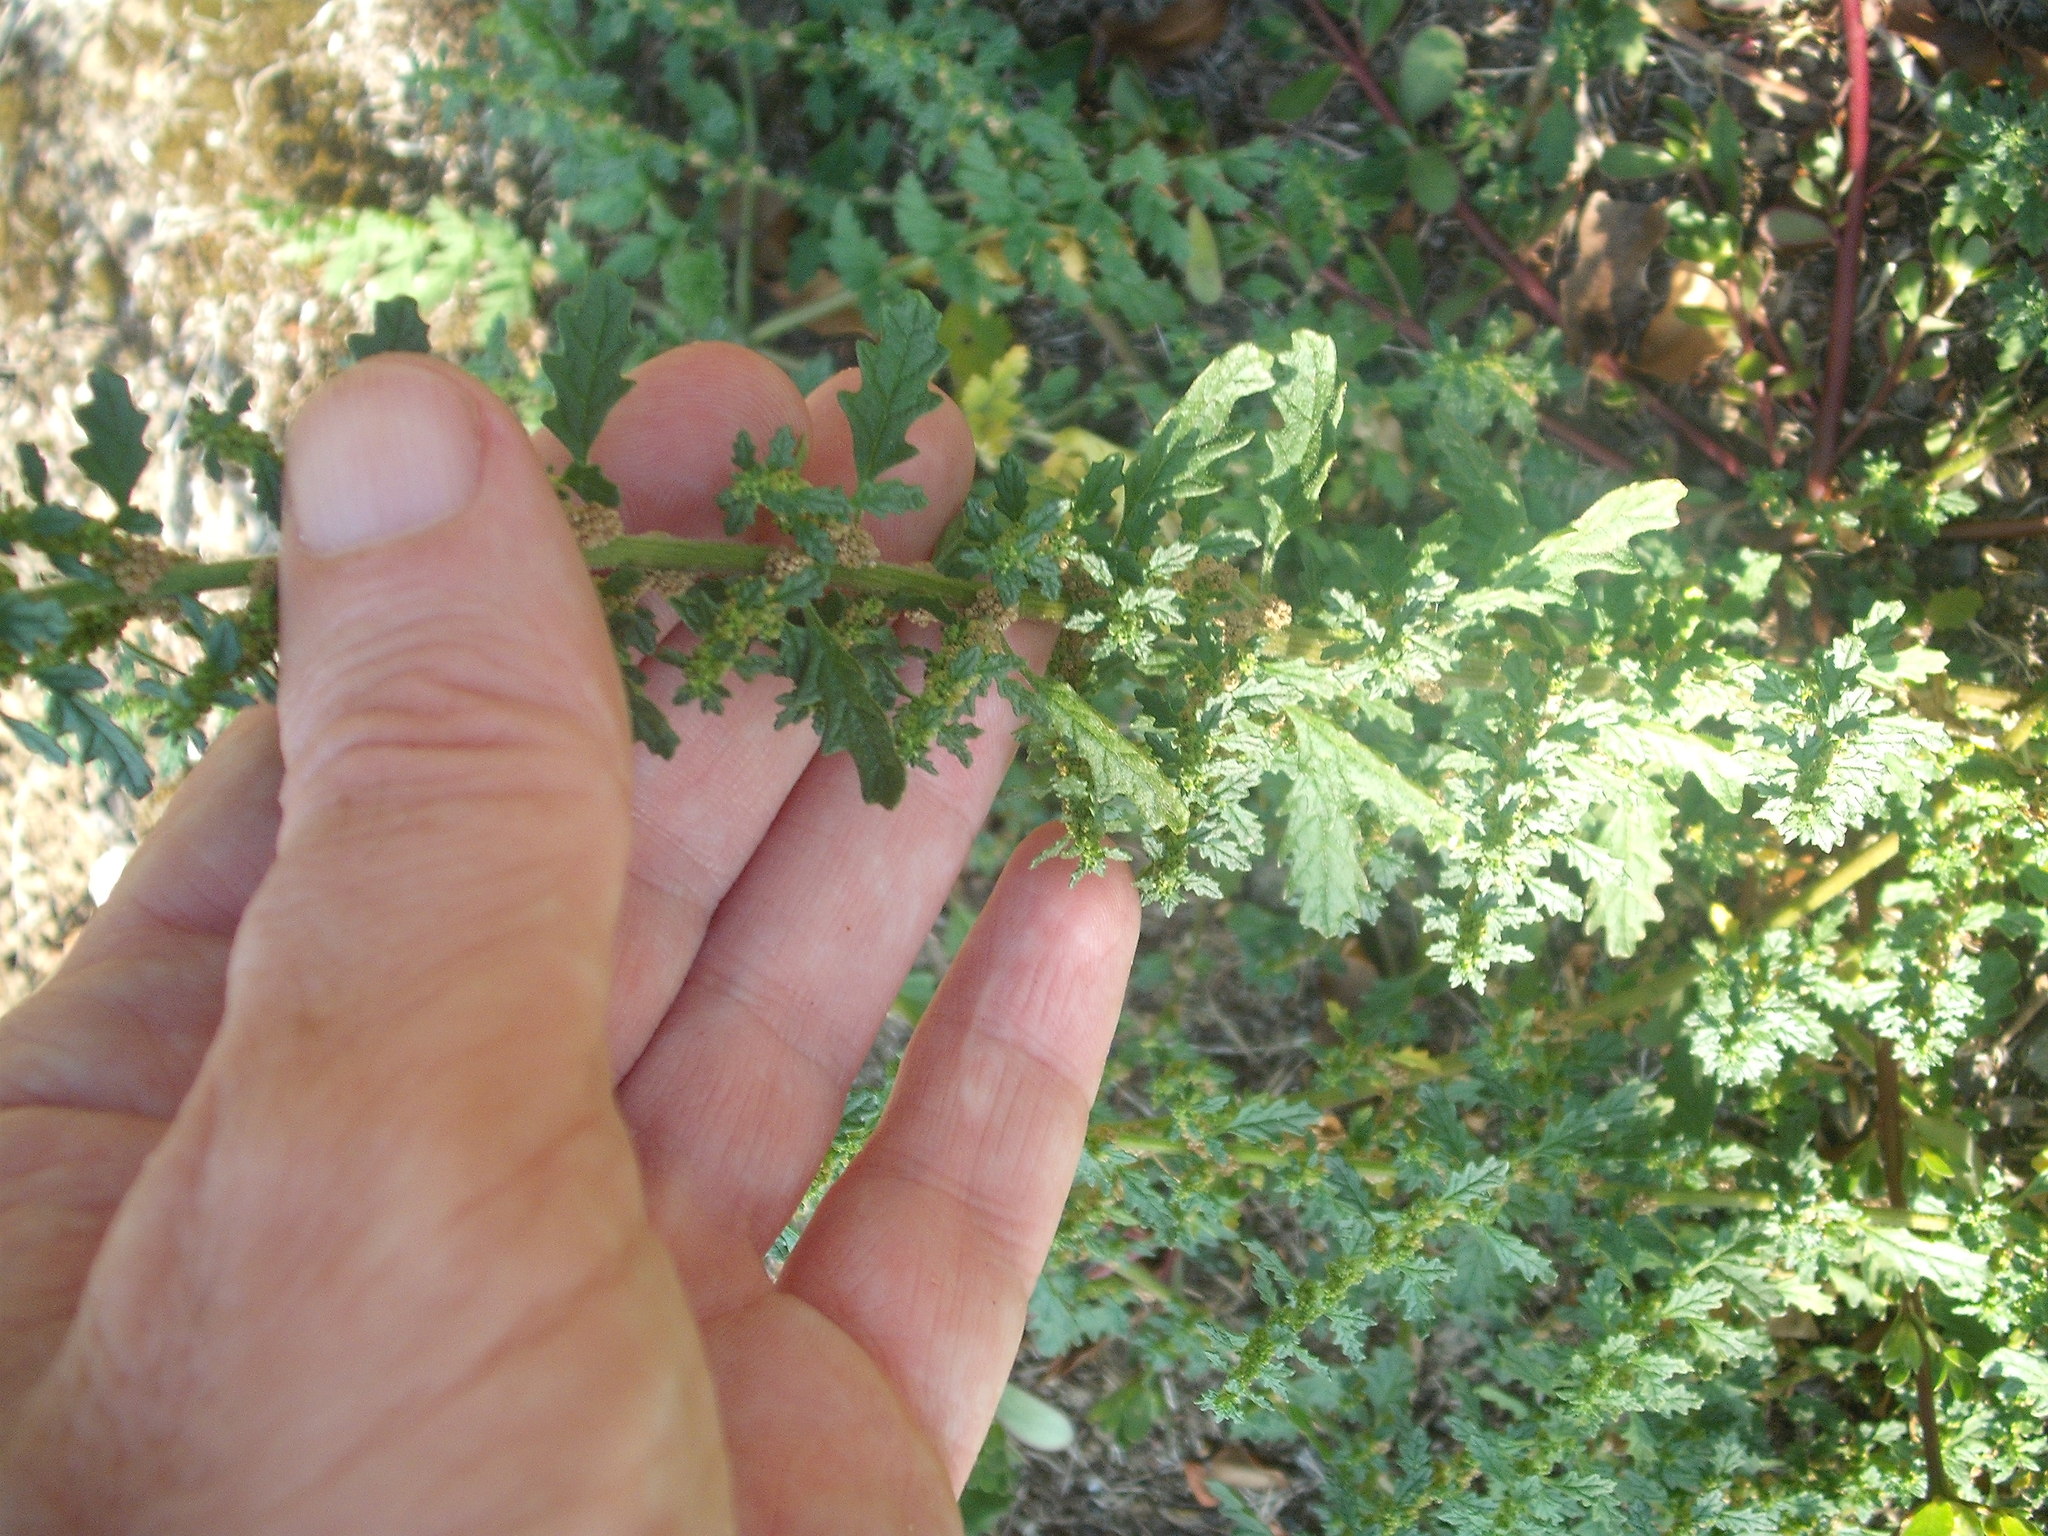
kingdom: Plantae
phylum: Tracheophyta
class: Magnoliopsida
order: Caryophyllales
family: Amaranthaceae
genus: Dysphania
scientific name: Dysphania pumilio
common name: Clammy goosefoot
